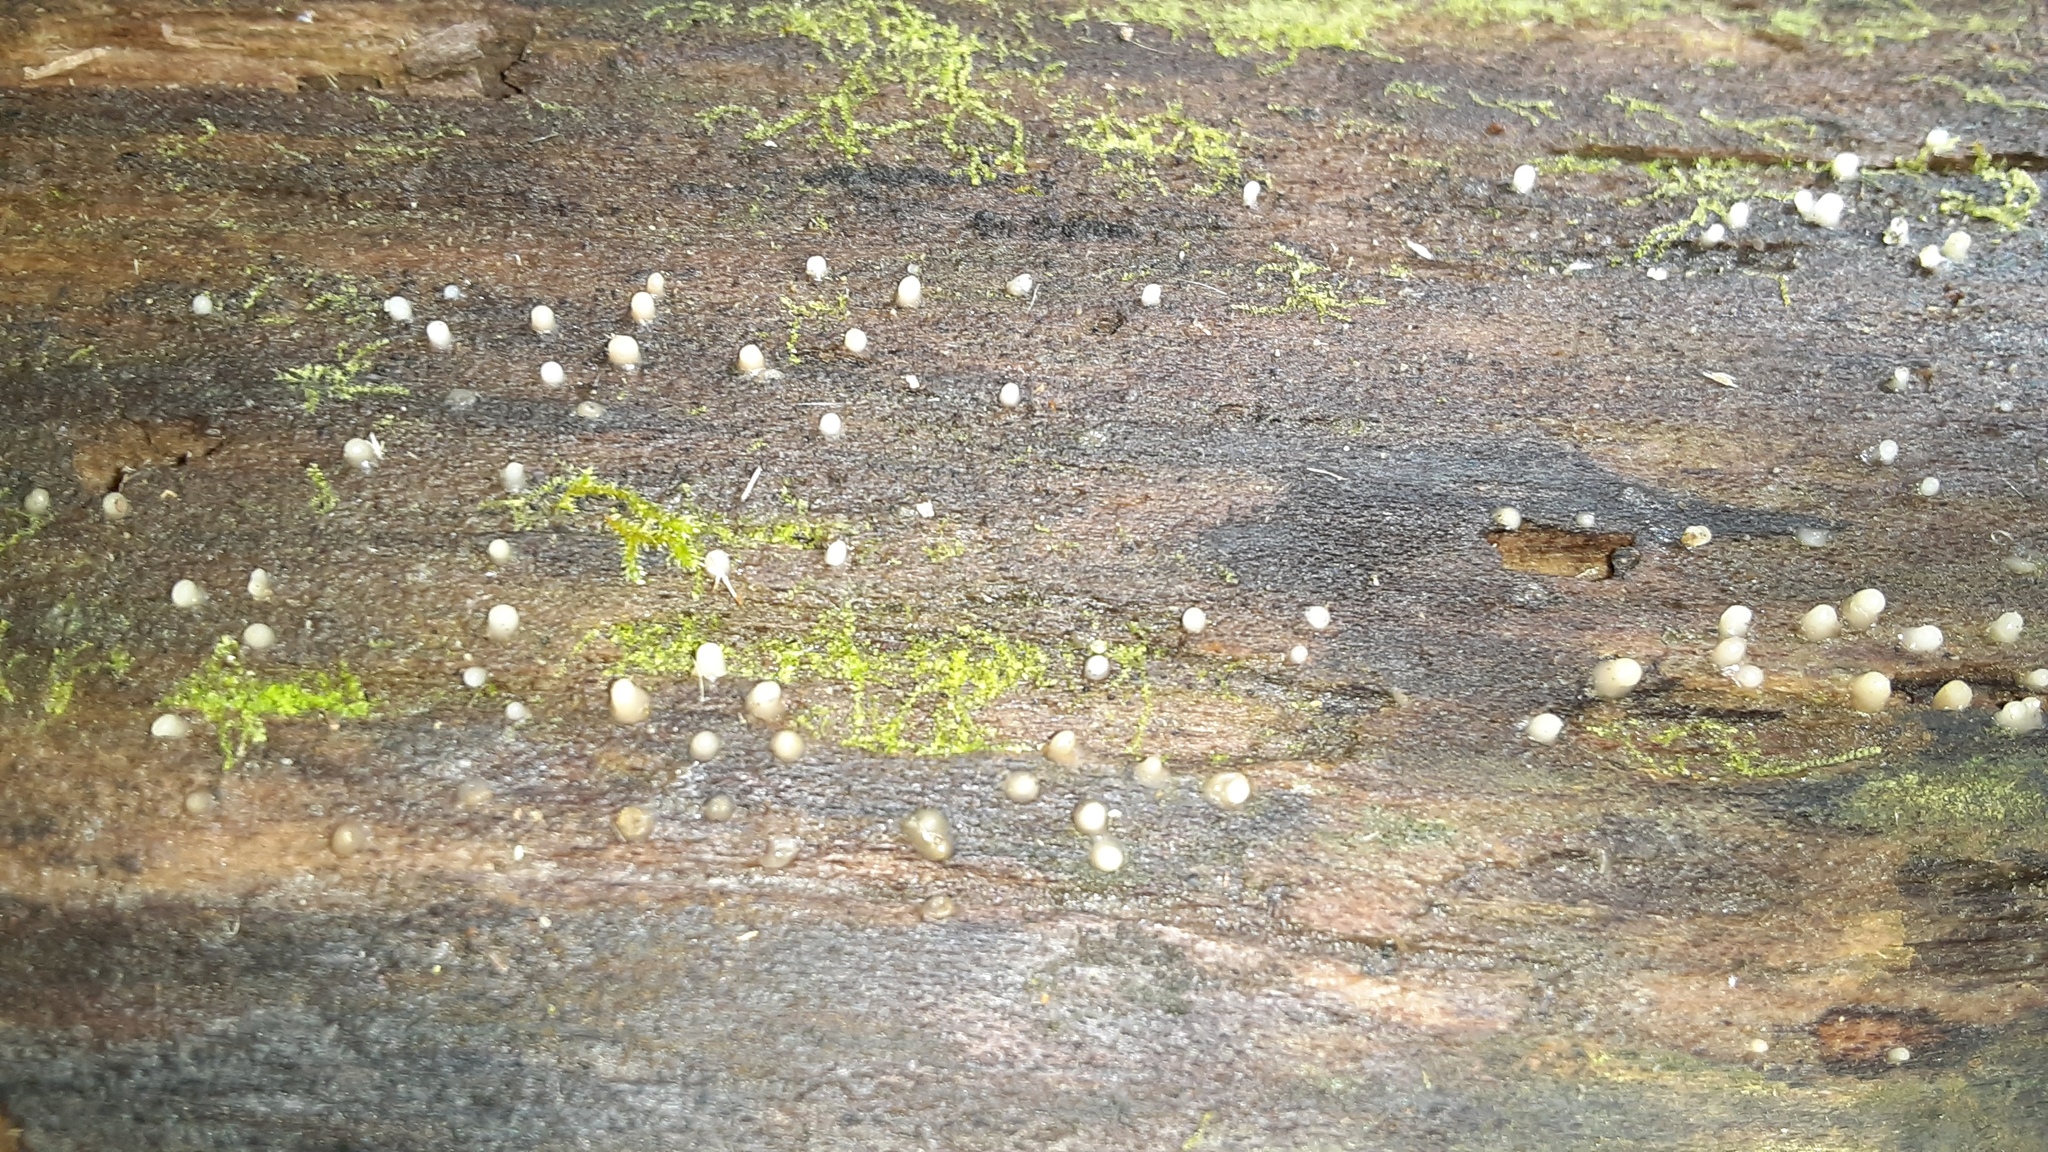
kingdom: Fungi
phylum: Basidiomycota
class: Atractiellomycetes
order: Atractiellales
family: Phleogenaceae
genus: Helicogloea
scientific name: Helicogloea compressa
